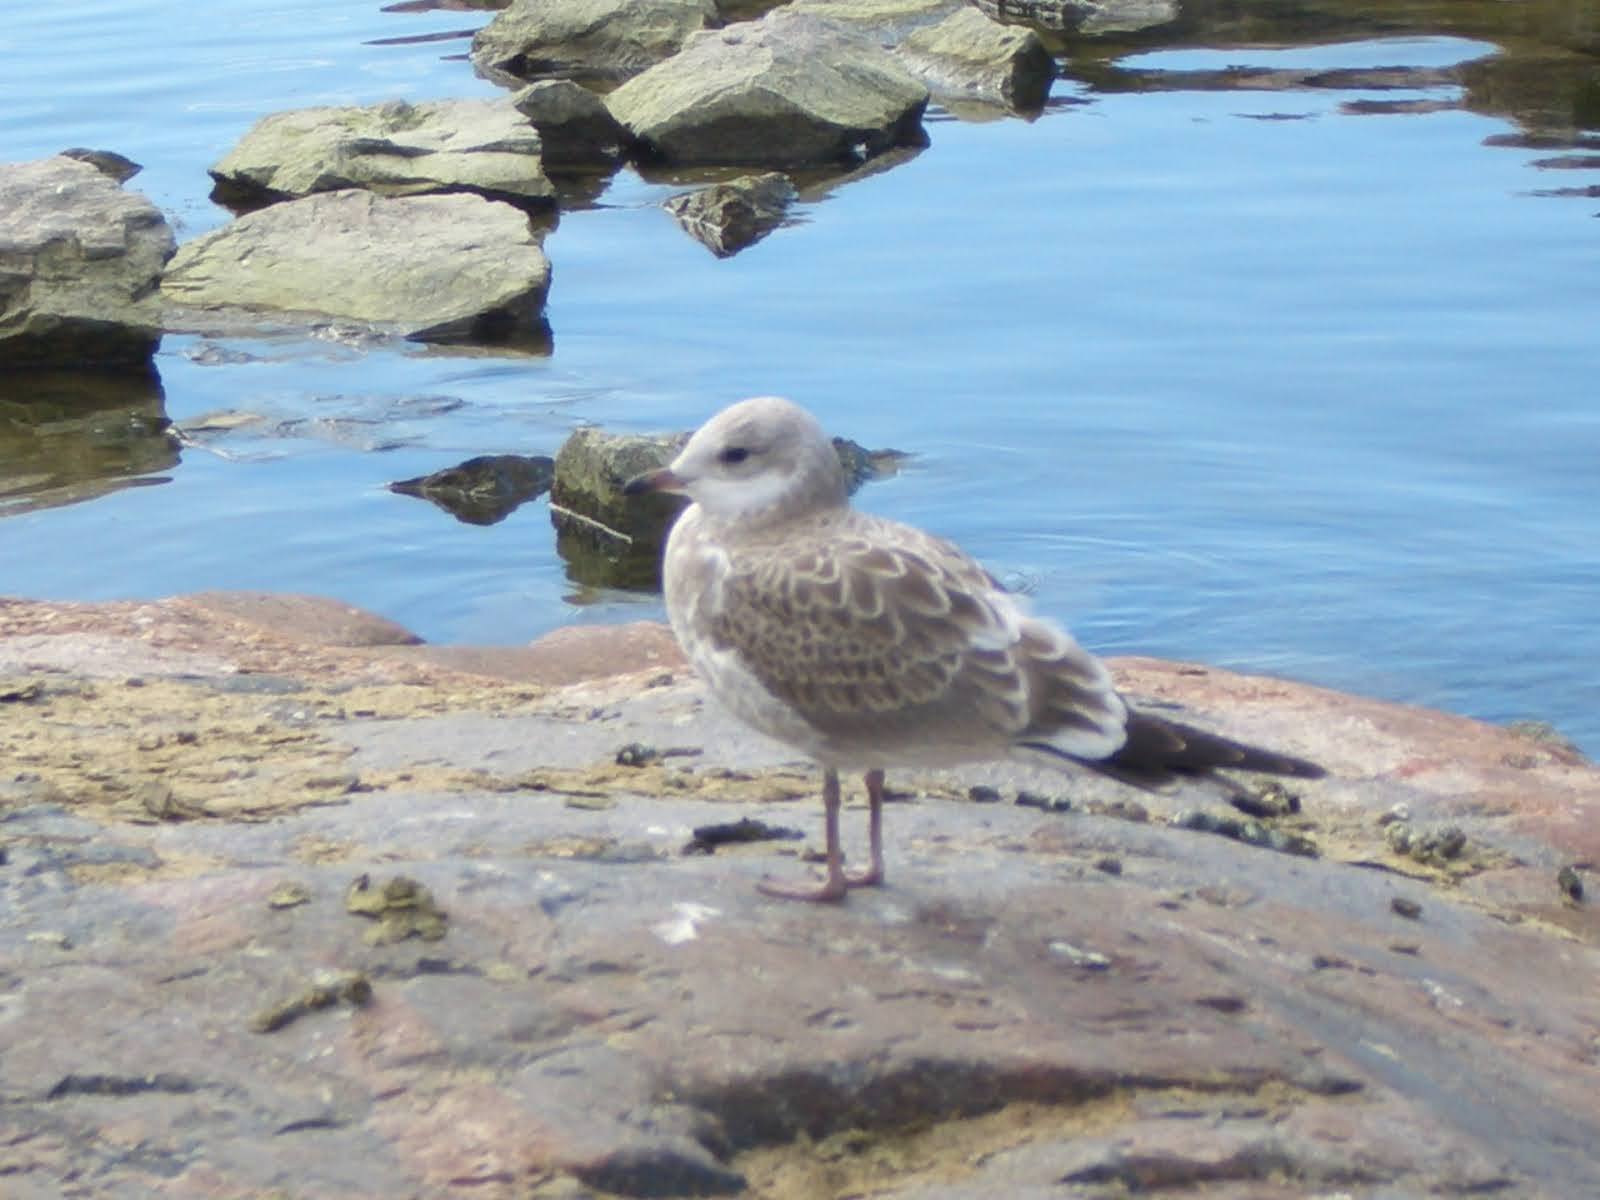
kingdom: Animalia
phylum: Chordata
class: Aves
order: Charadriiformes
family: Laridae
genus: Larus
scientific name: Larus canus
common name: Mew gull
